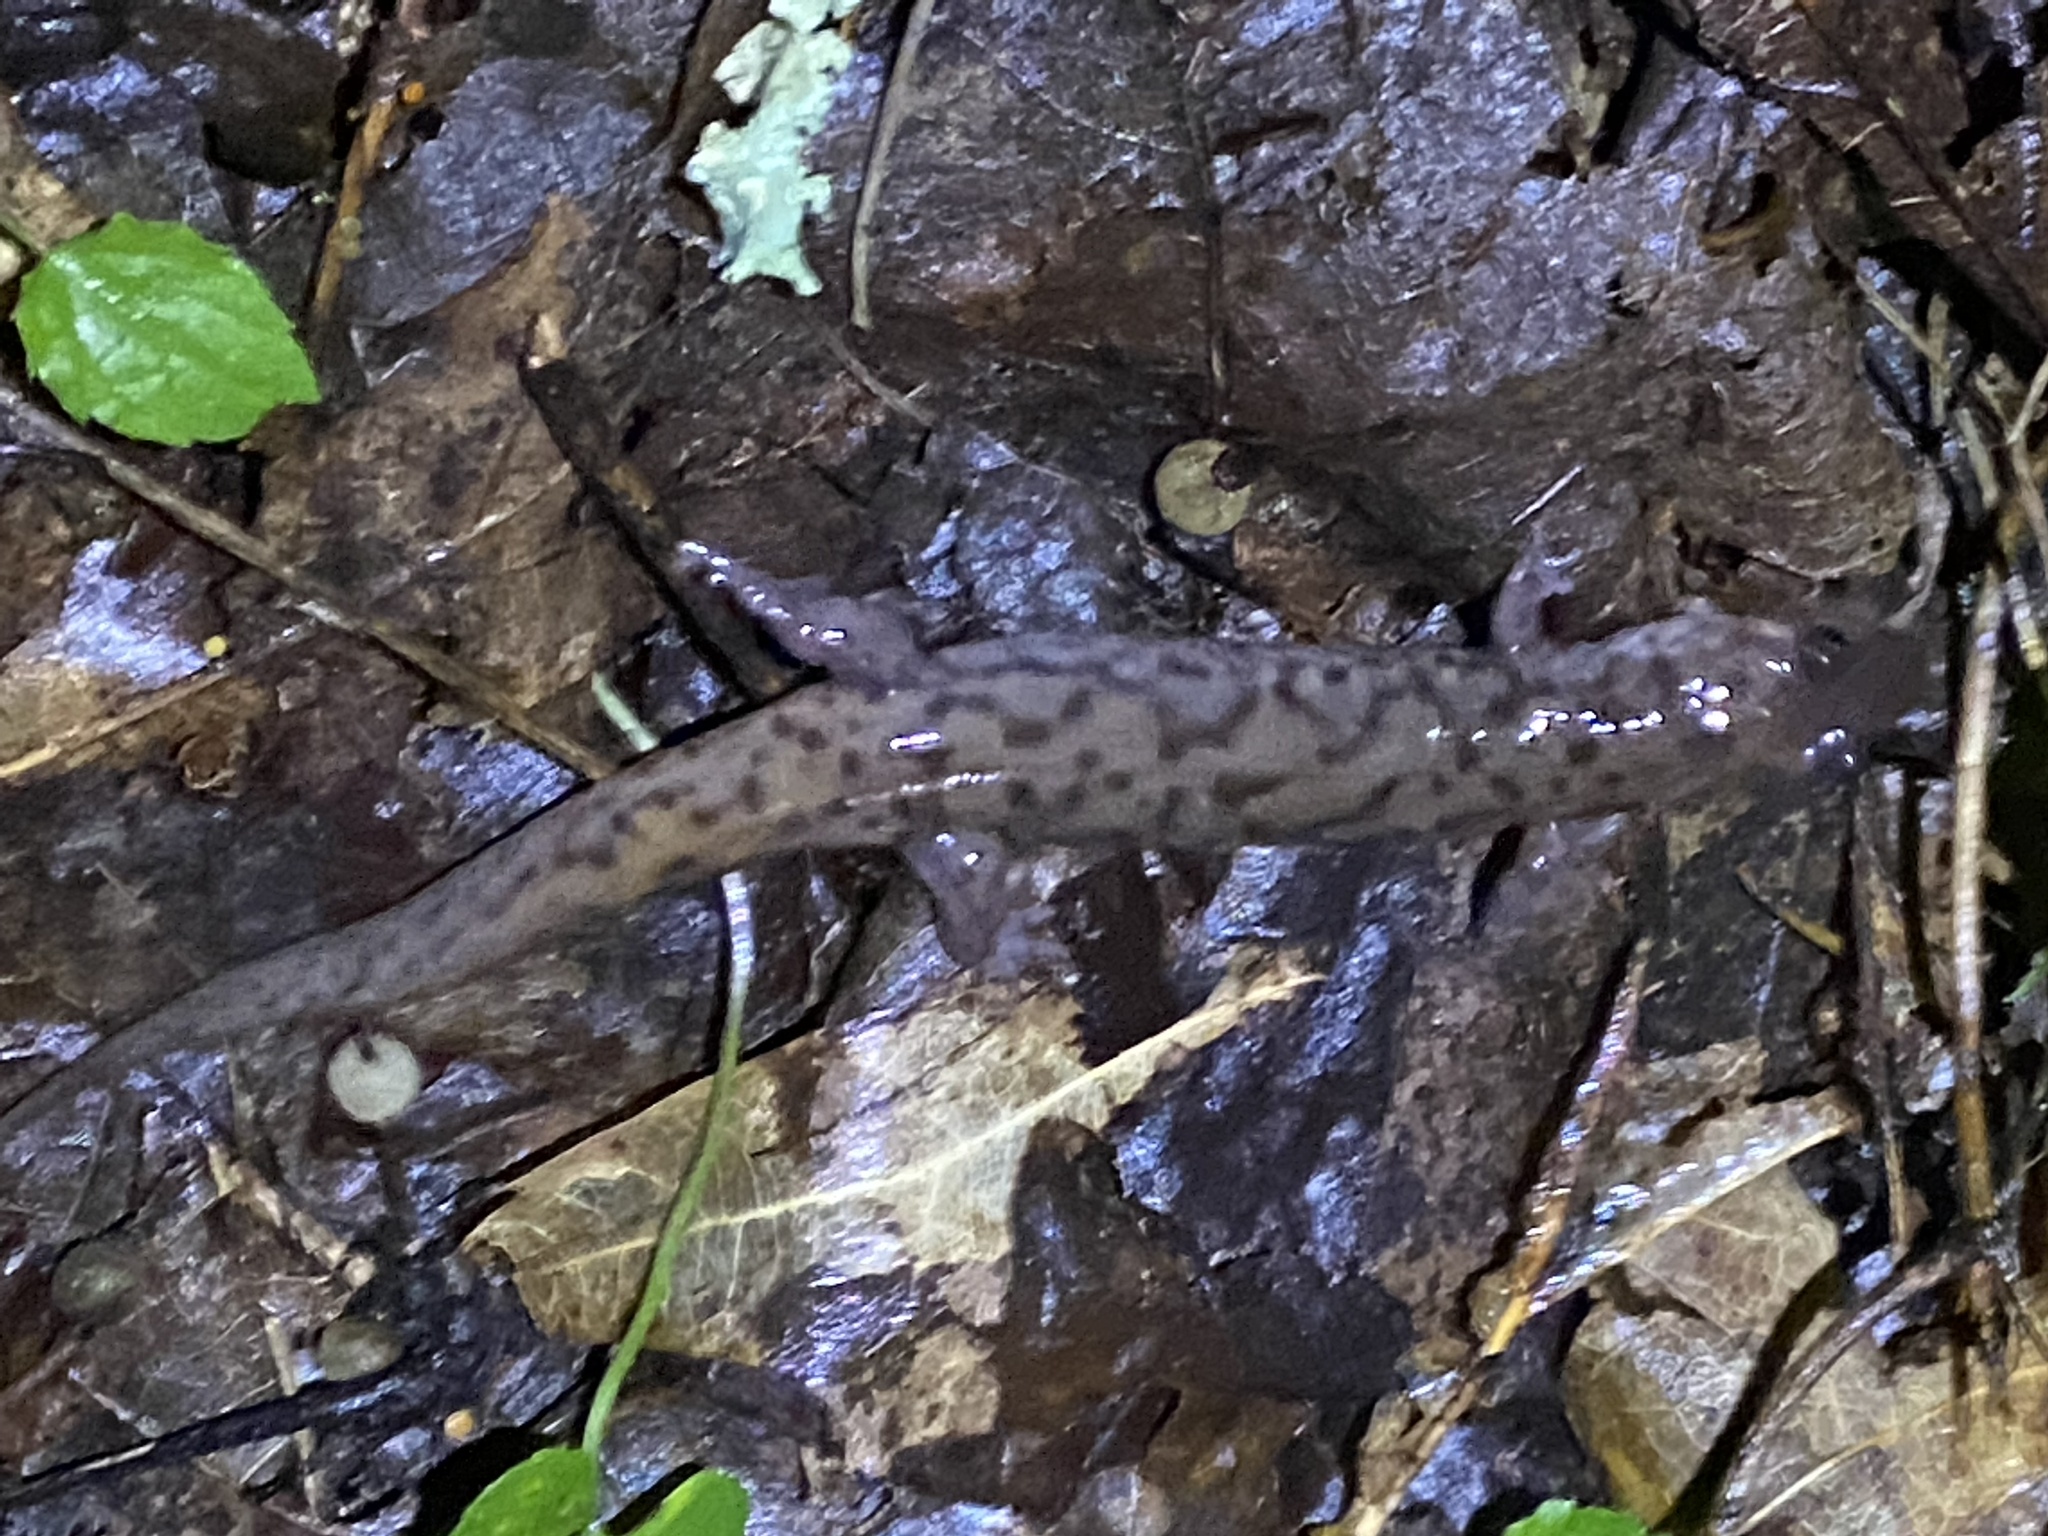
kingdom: Animalia
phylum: Chordata
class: Amphibia
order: Caudata
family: Plethodontidae
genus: Desmognathus
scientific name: Desmognathus monticola
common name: Seal salamander
